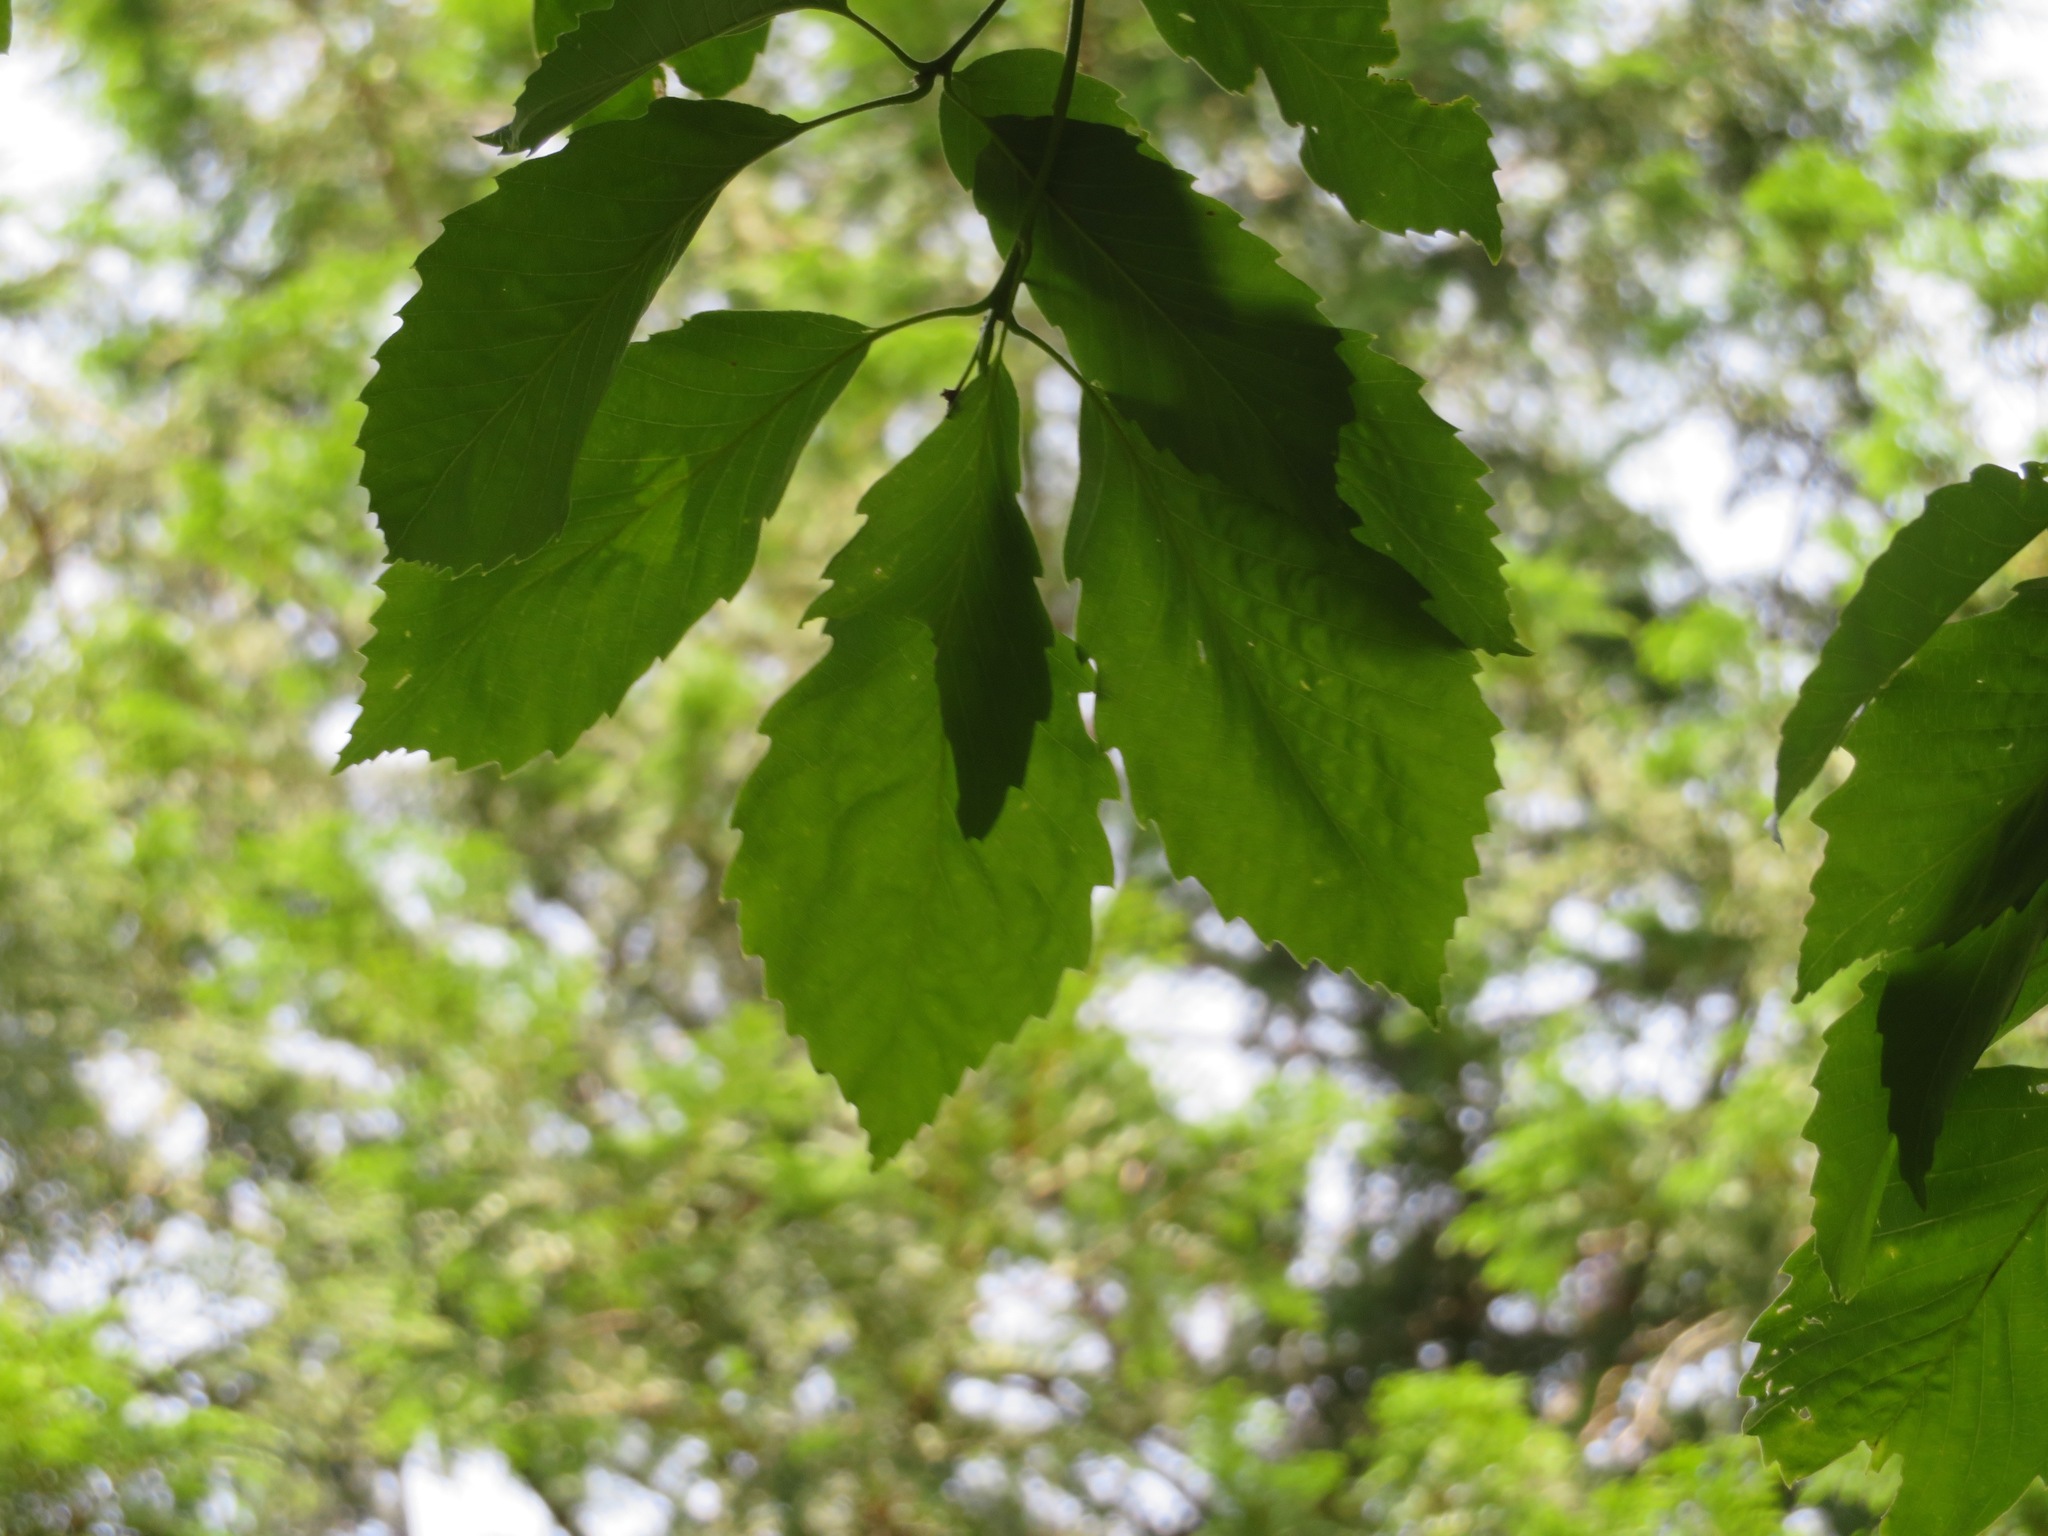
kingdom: Plantae
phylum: Tracheophyta
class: Magnoliopsida
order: Fagales
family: Fagaceae
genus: Quercus
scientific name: Quercus serrata
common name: Bao li
